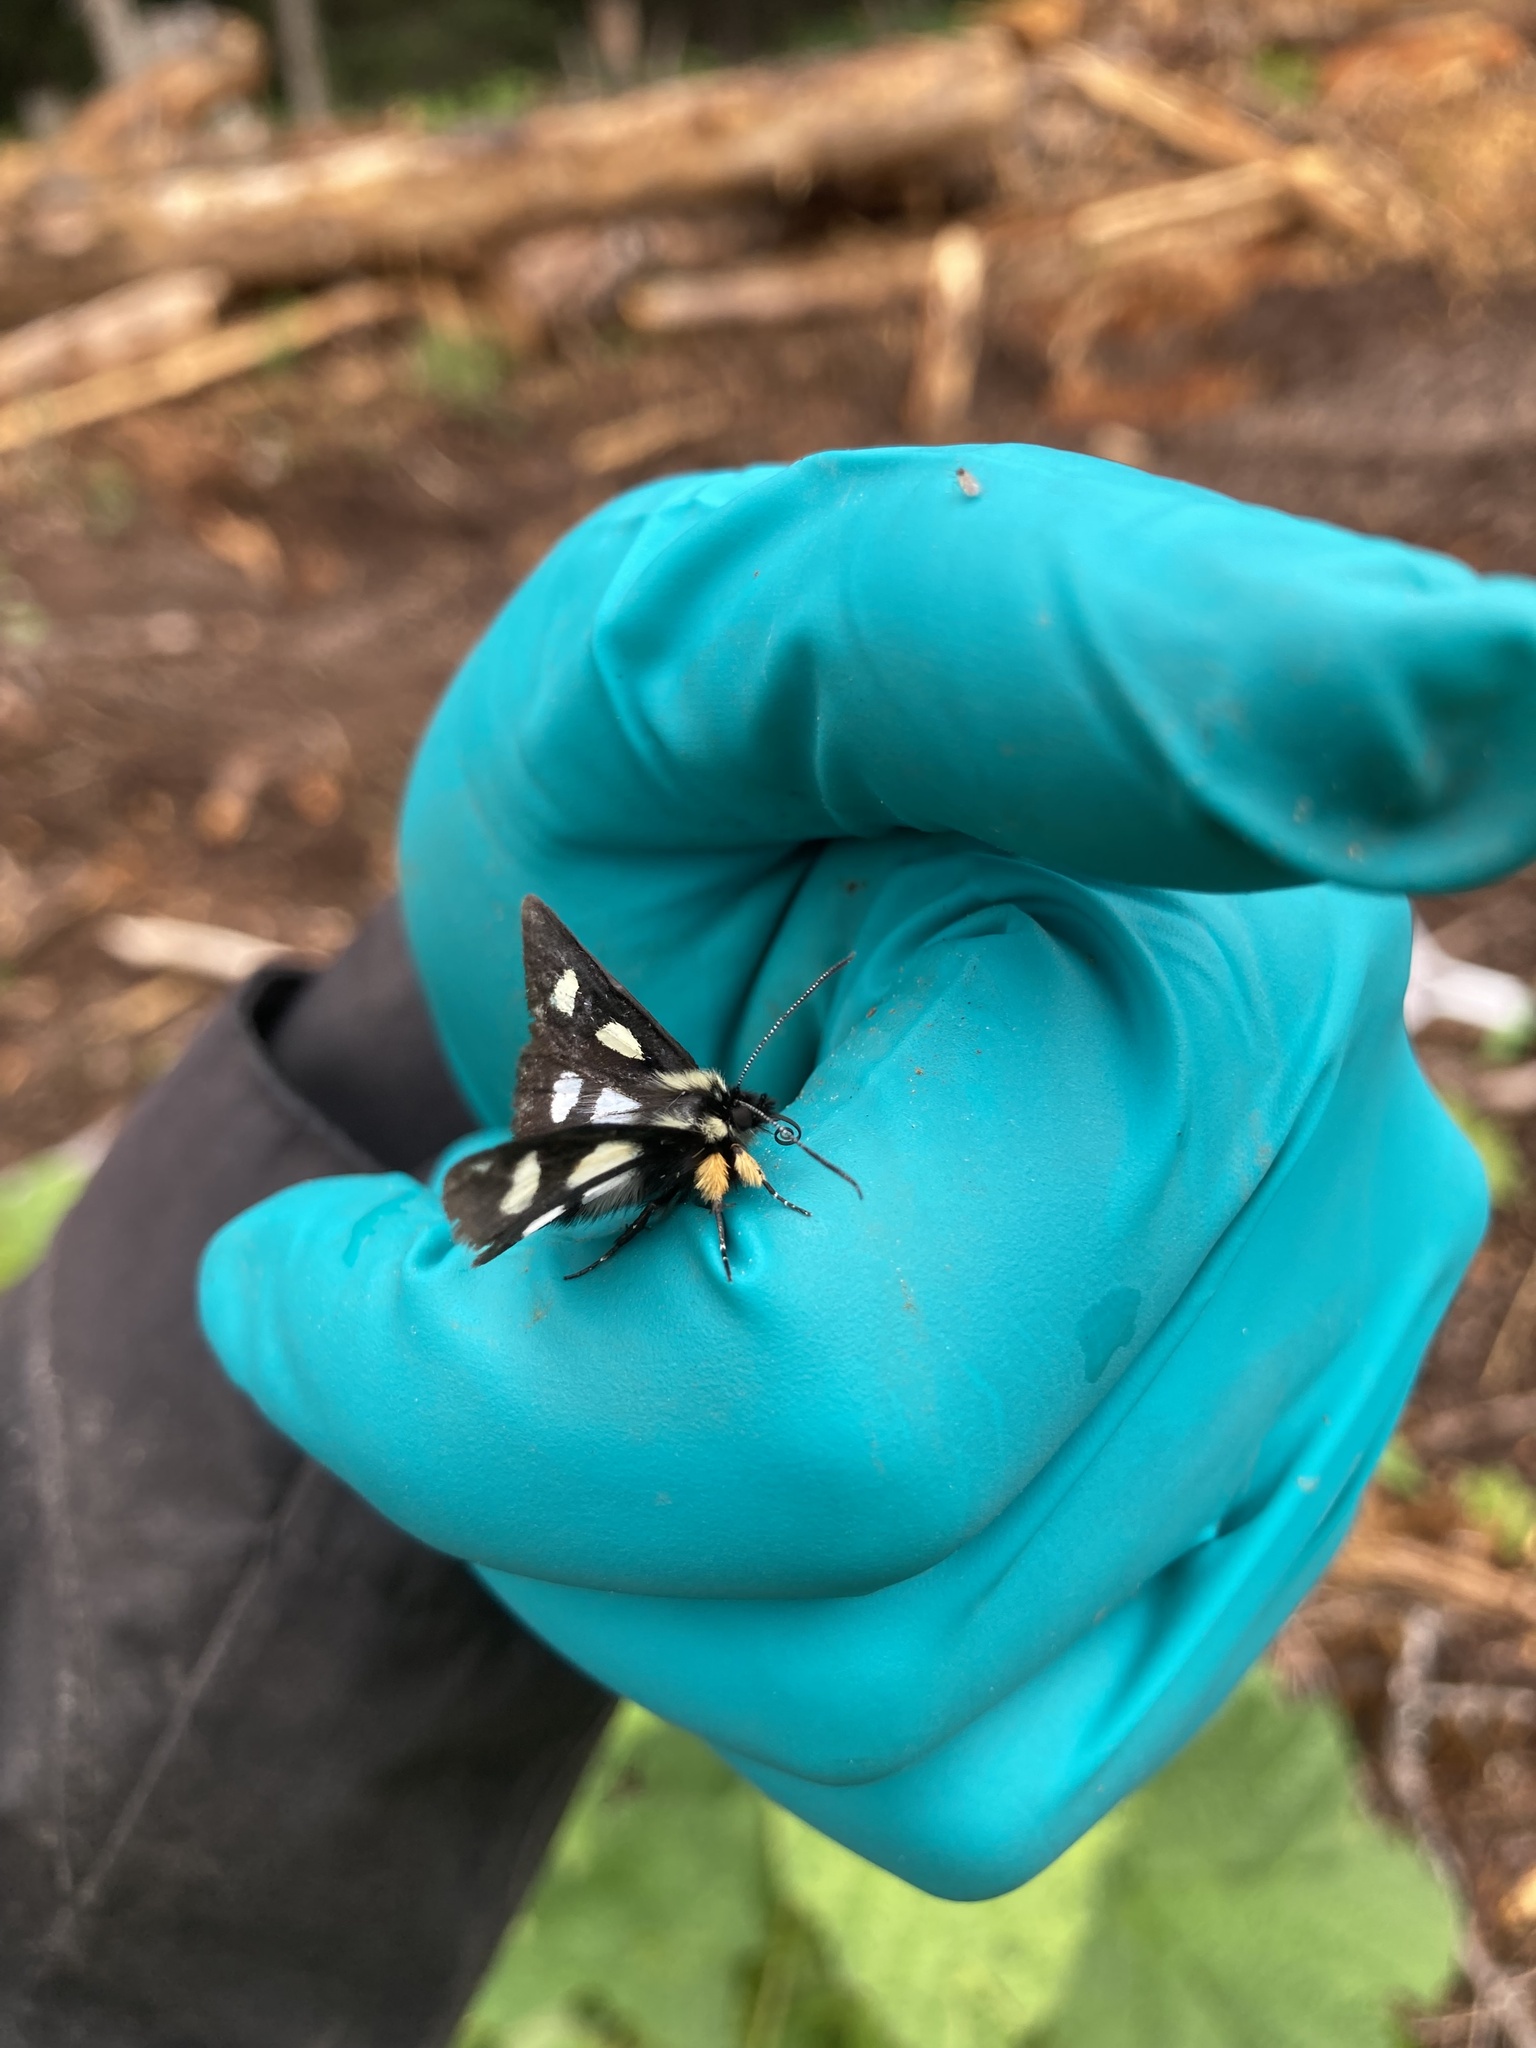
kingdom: Animalia
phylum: Arthropoda
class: Insecta
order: Lepidoptera
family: Noctuidae
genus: Alypia
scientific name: Alypia langtonii
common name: Fireweed caterpillar
